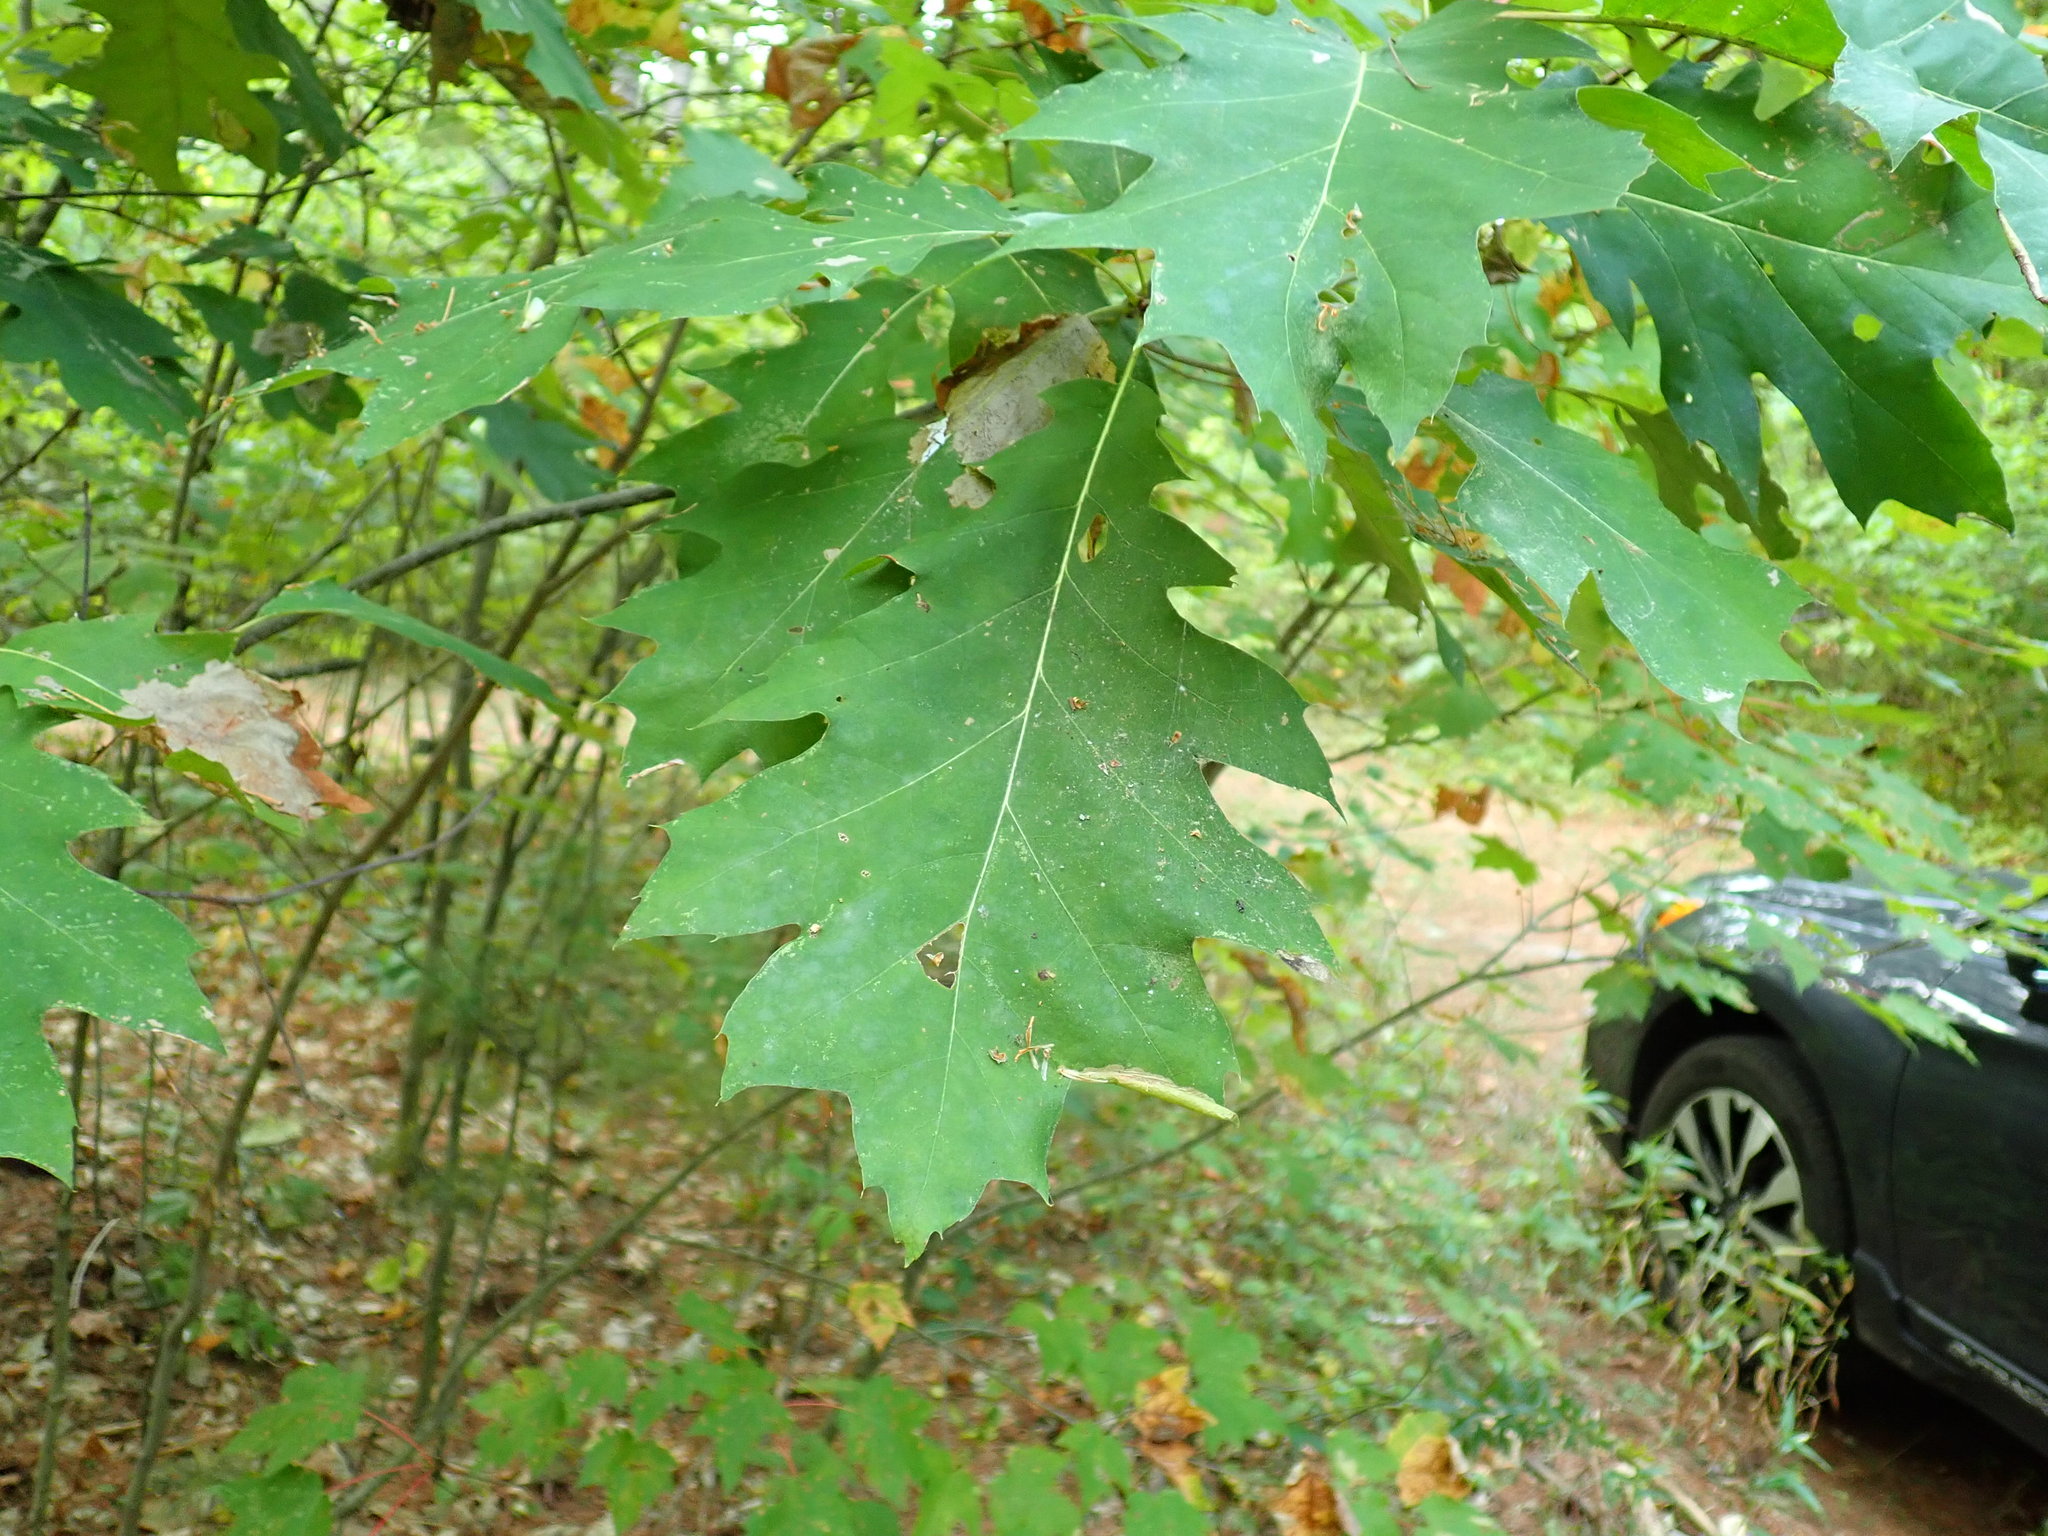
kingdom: Plantae
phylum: Tracheophyta
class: Magnoliopsida
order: Fagales
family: Fagaceae
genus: Quercus
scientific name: Quercus rubra
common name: Red oak
